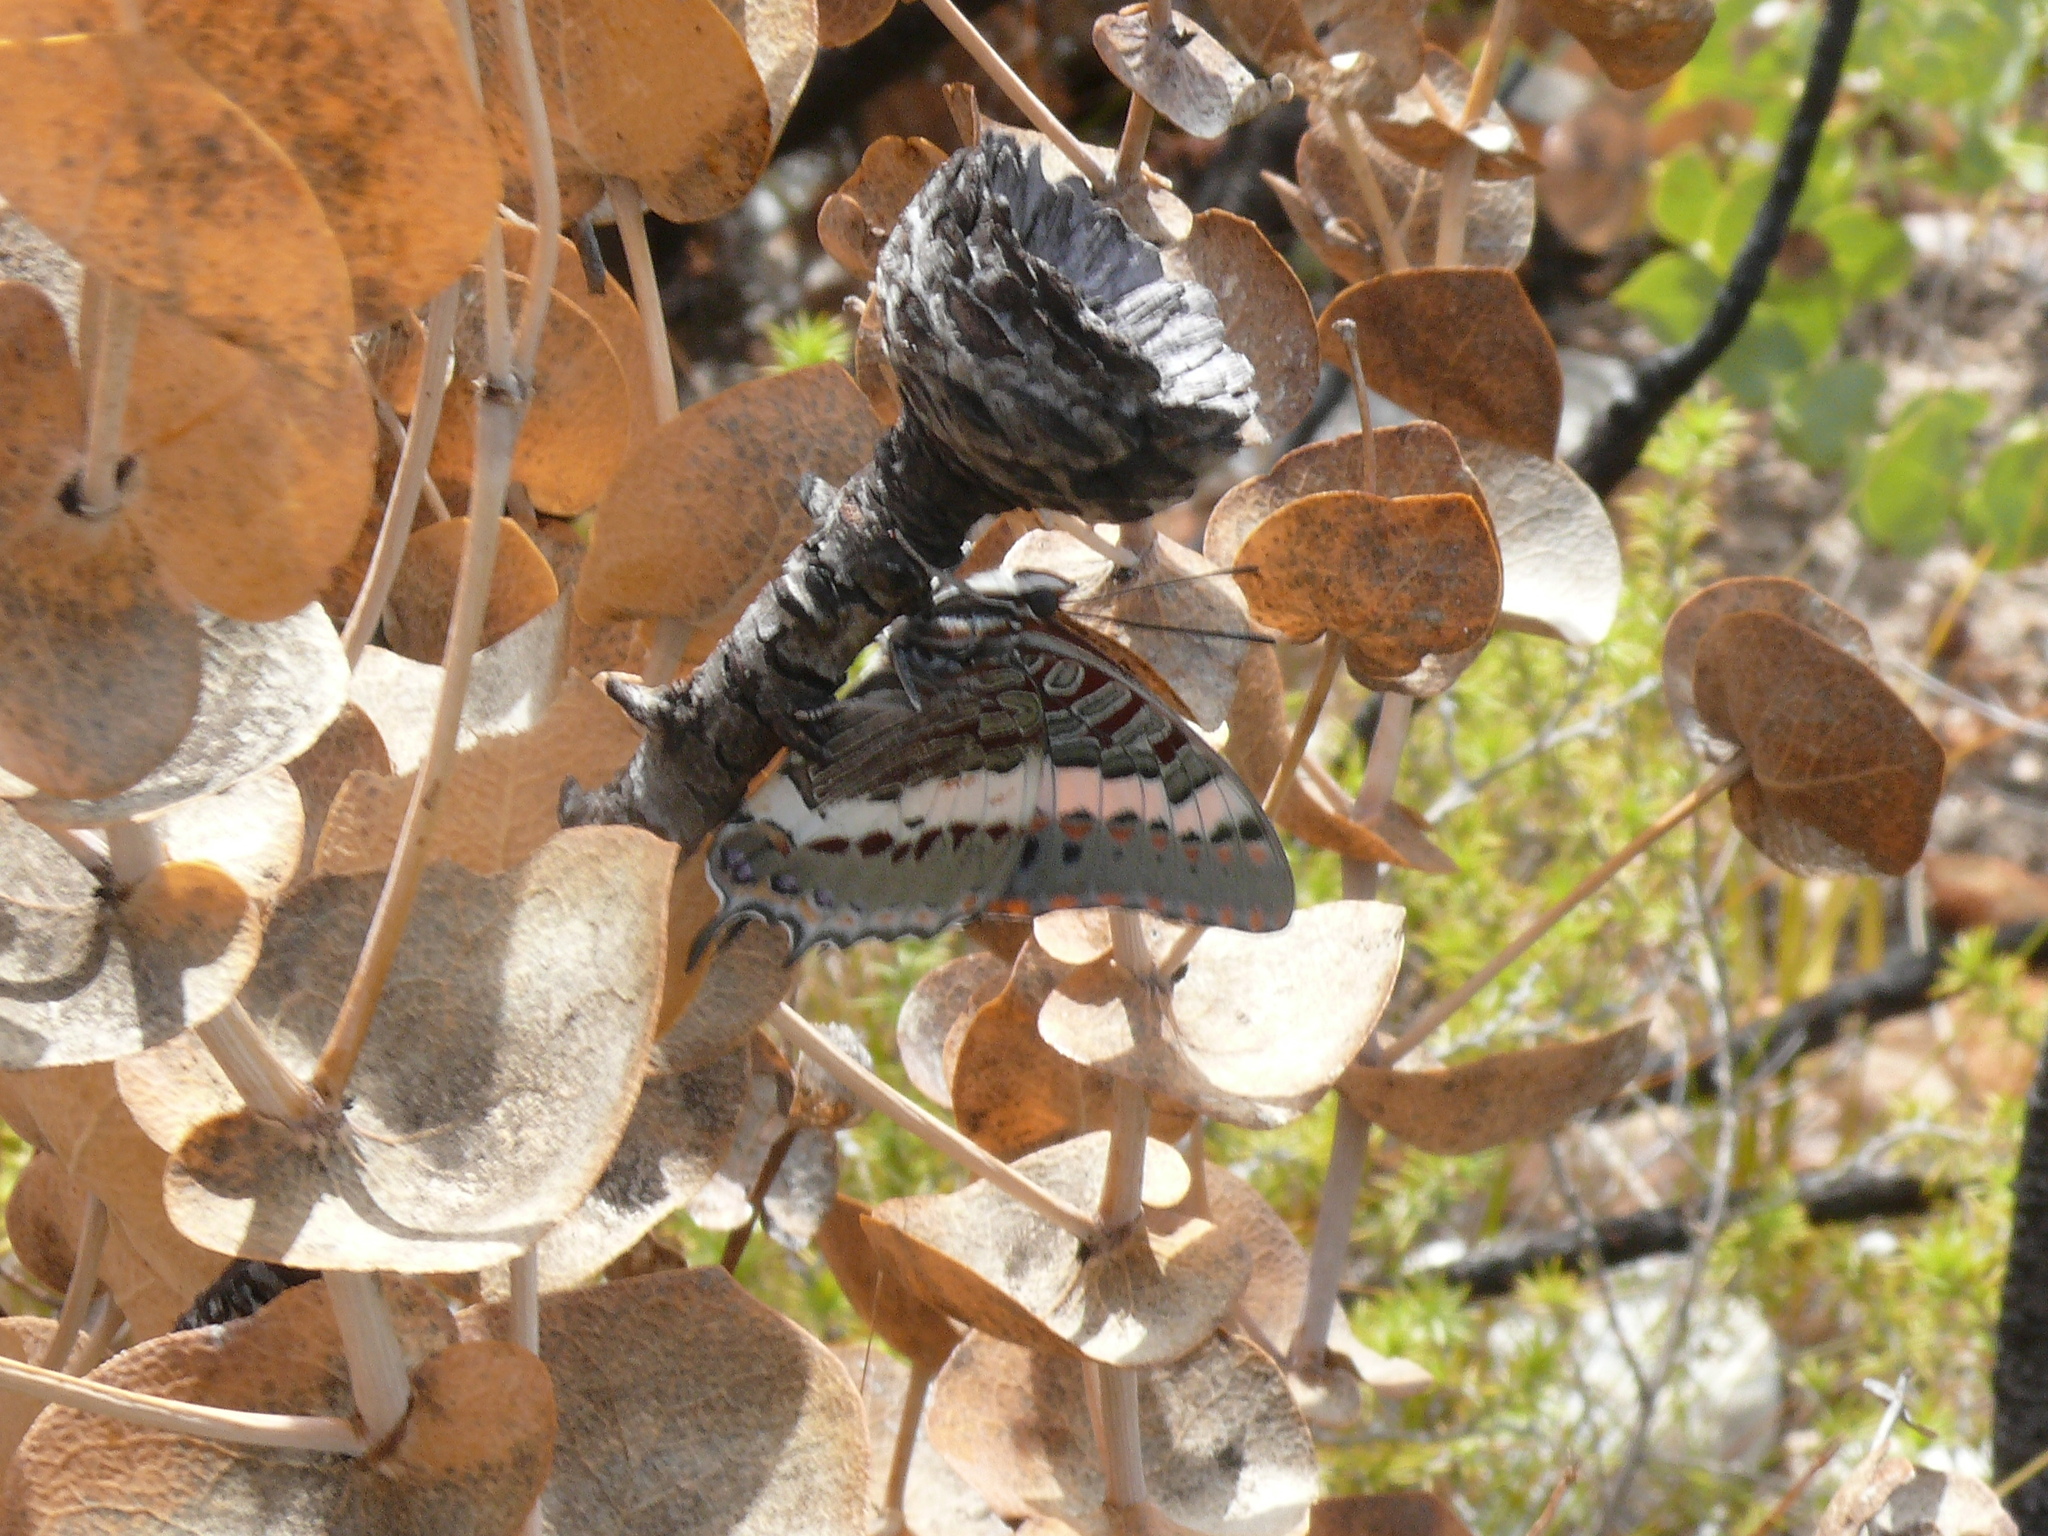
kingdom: Animalia
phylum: Arthropoda
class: Insecta
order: Lepidoptera
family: Nymphalidae
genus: Charaxes
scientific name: Charaxes pelias
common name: Protea charaxes
